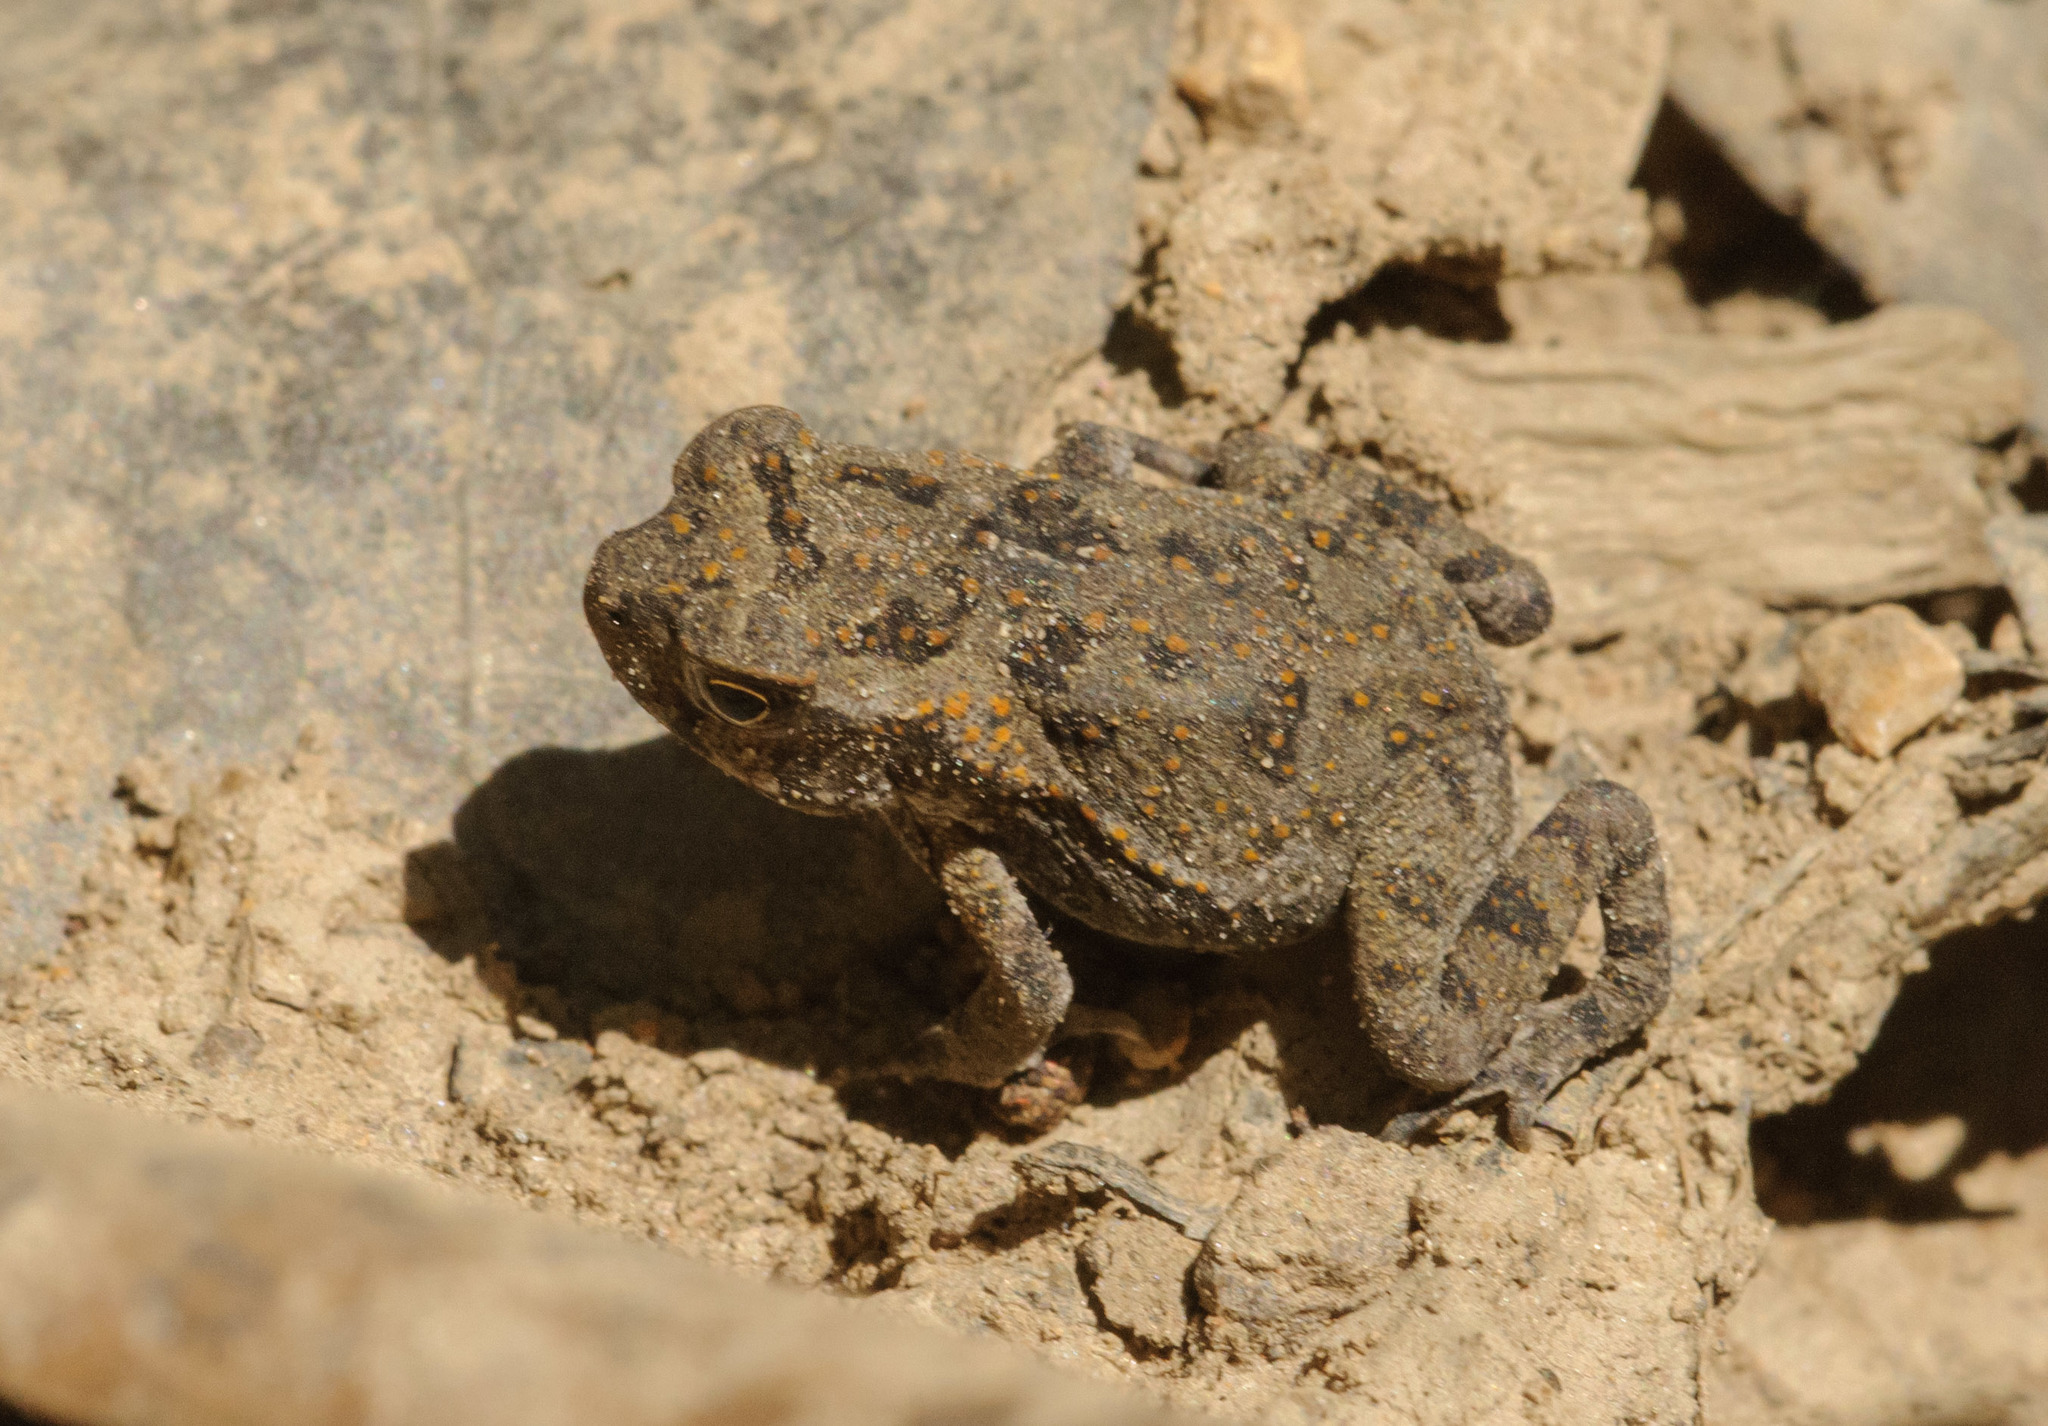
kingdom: Animalia
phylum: Chordata
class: Amphibia
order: Anura
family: Bufonidae
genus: Rhinella
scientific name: Rhinella marina
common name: Cane toad
